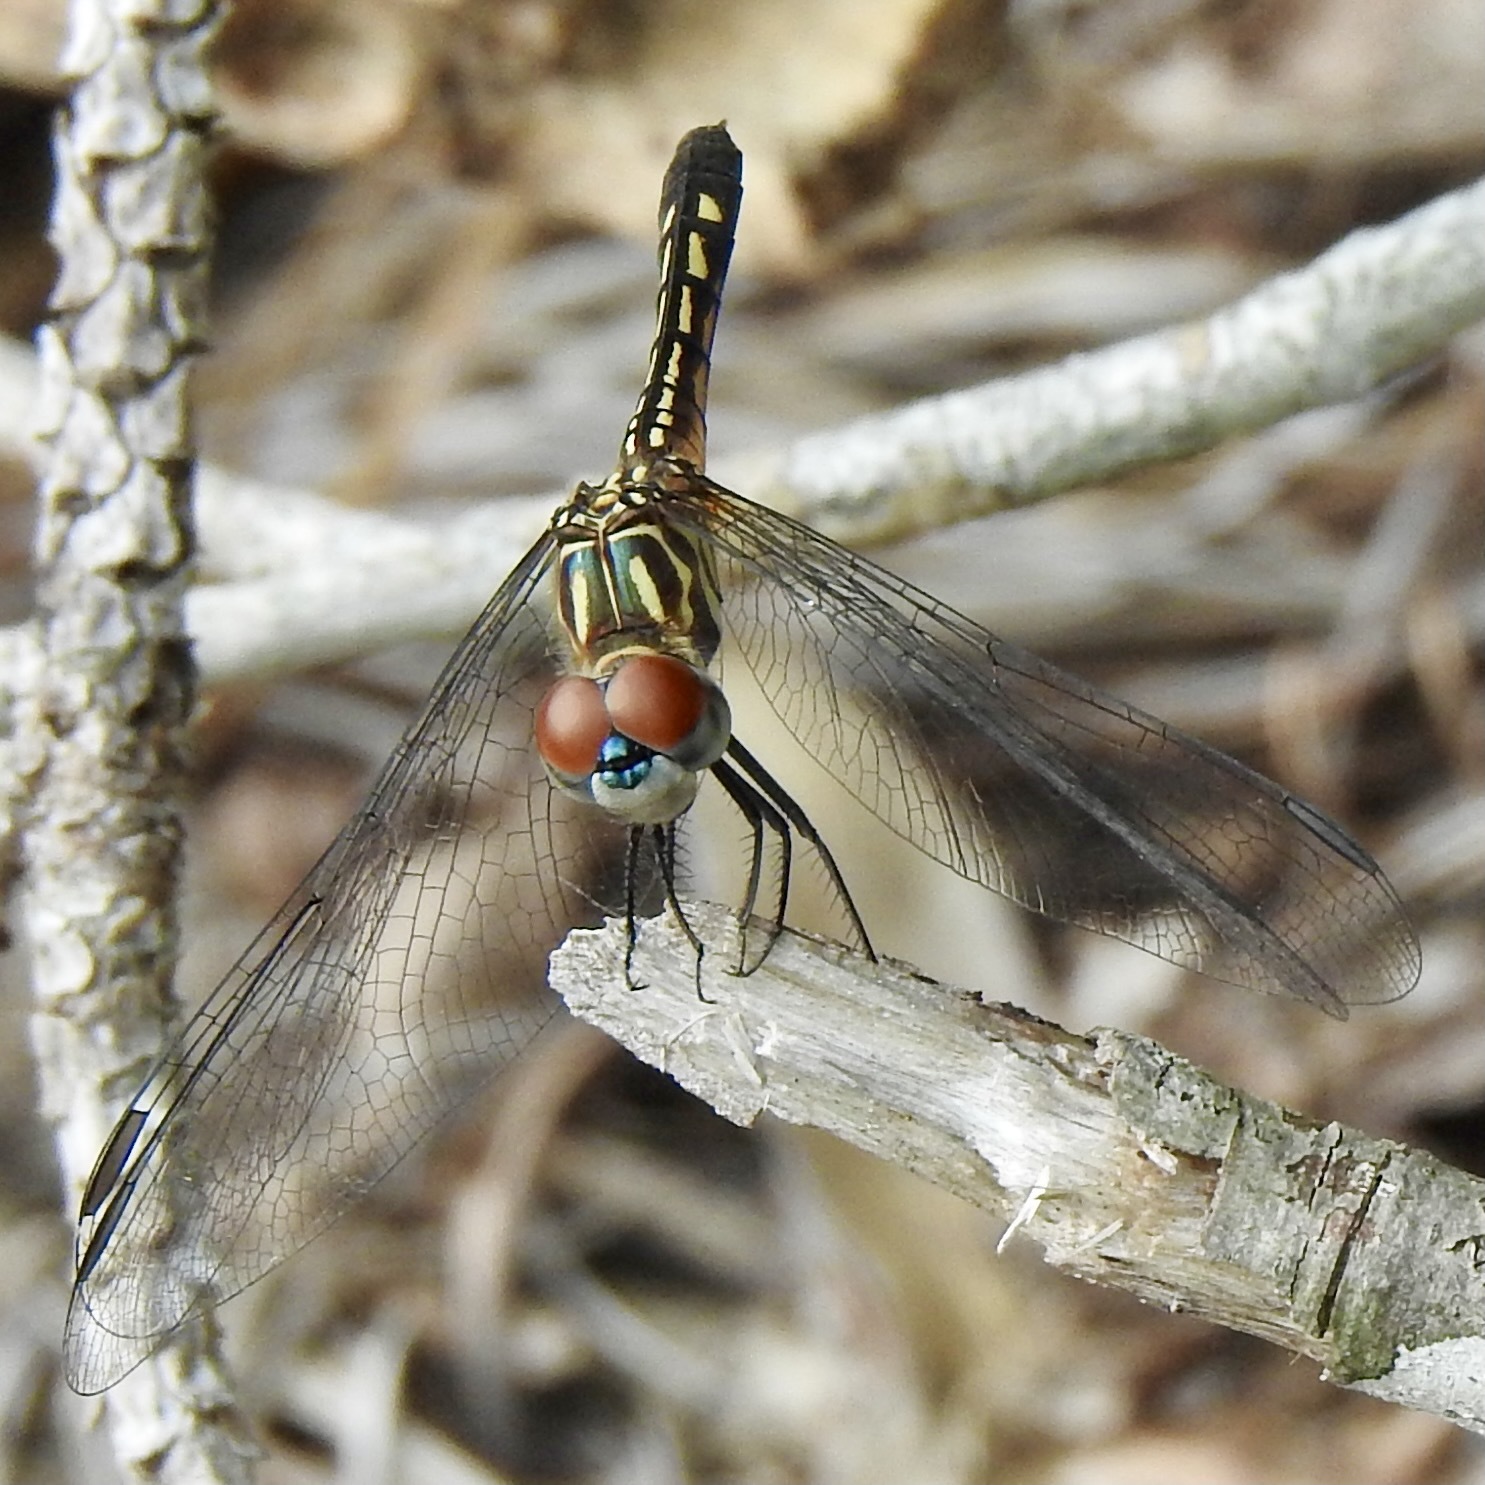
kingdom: Animalia
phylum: Arthropoda
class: Insecta
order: Odonata
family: Libellulidae
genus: Pachydiplax
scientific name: Pachydiplax longipennis
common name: Blue dasher
